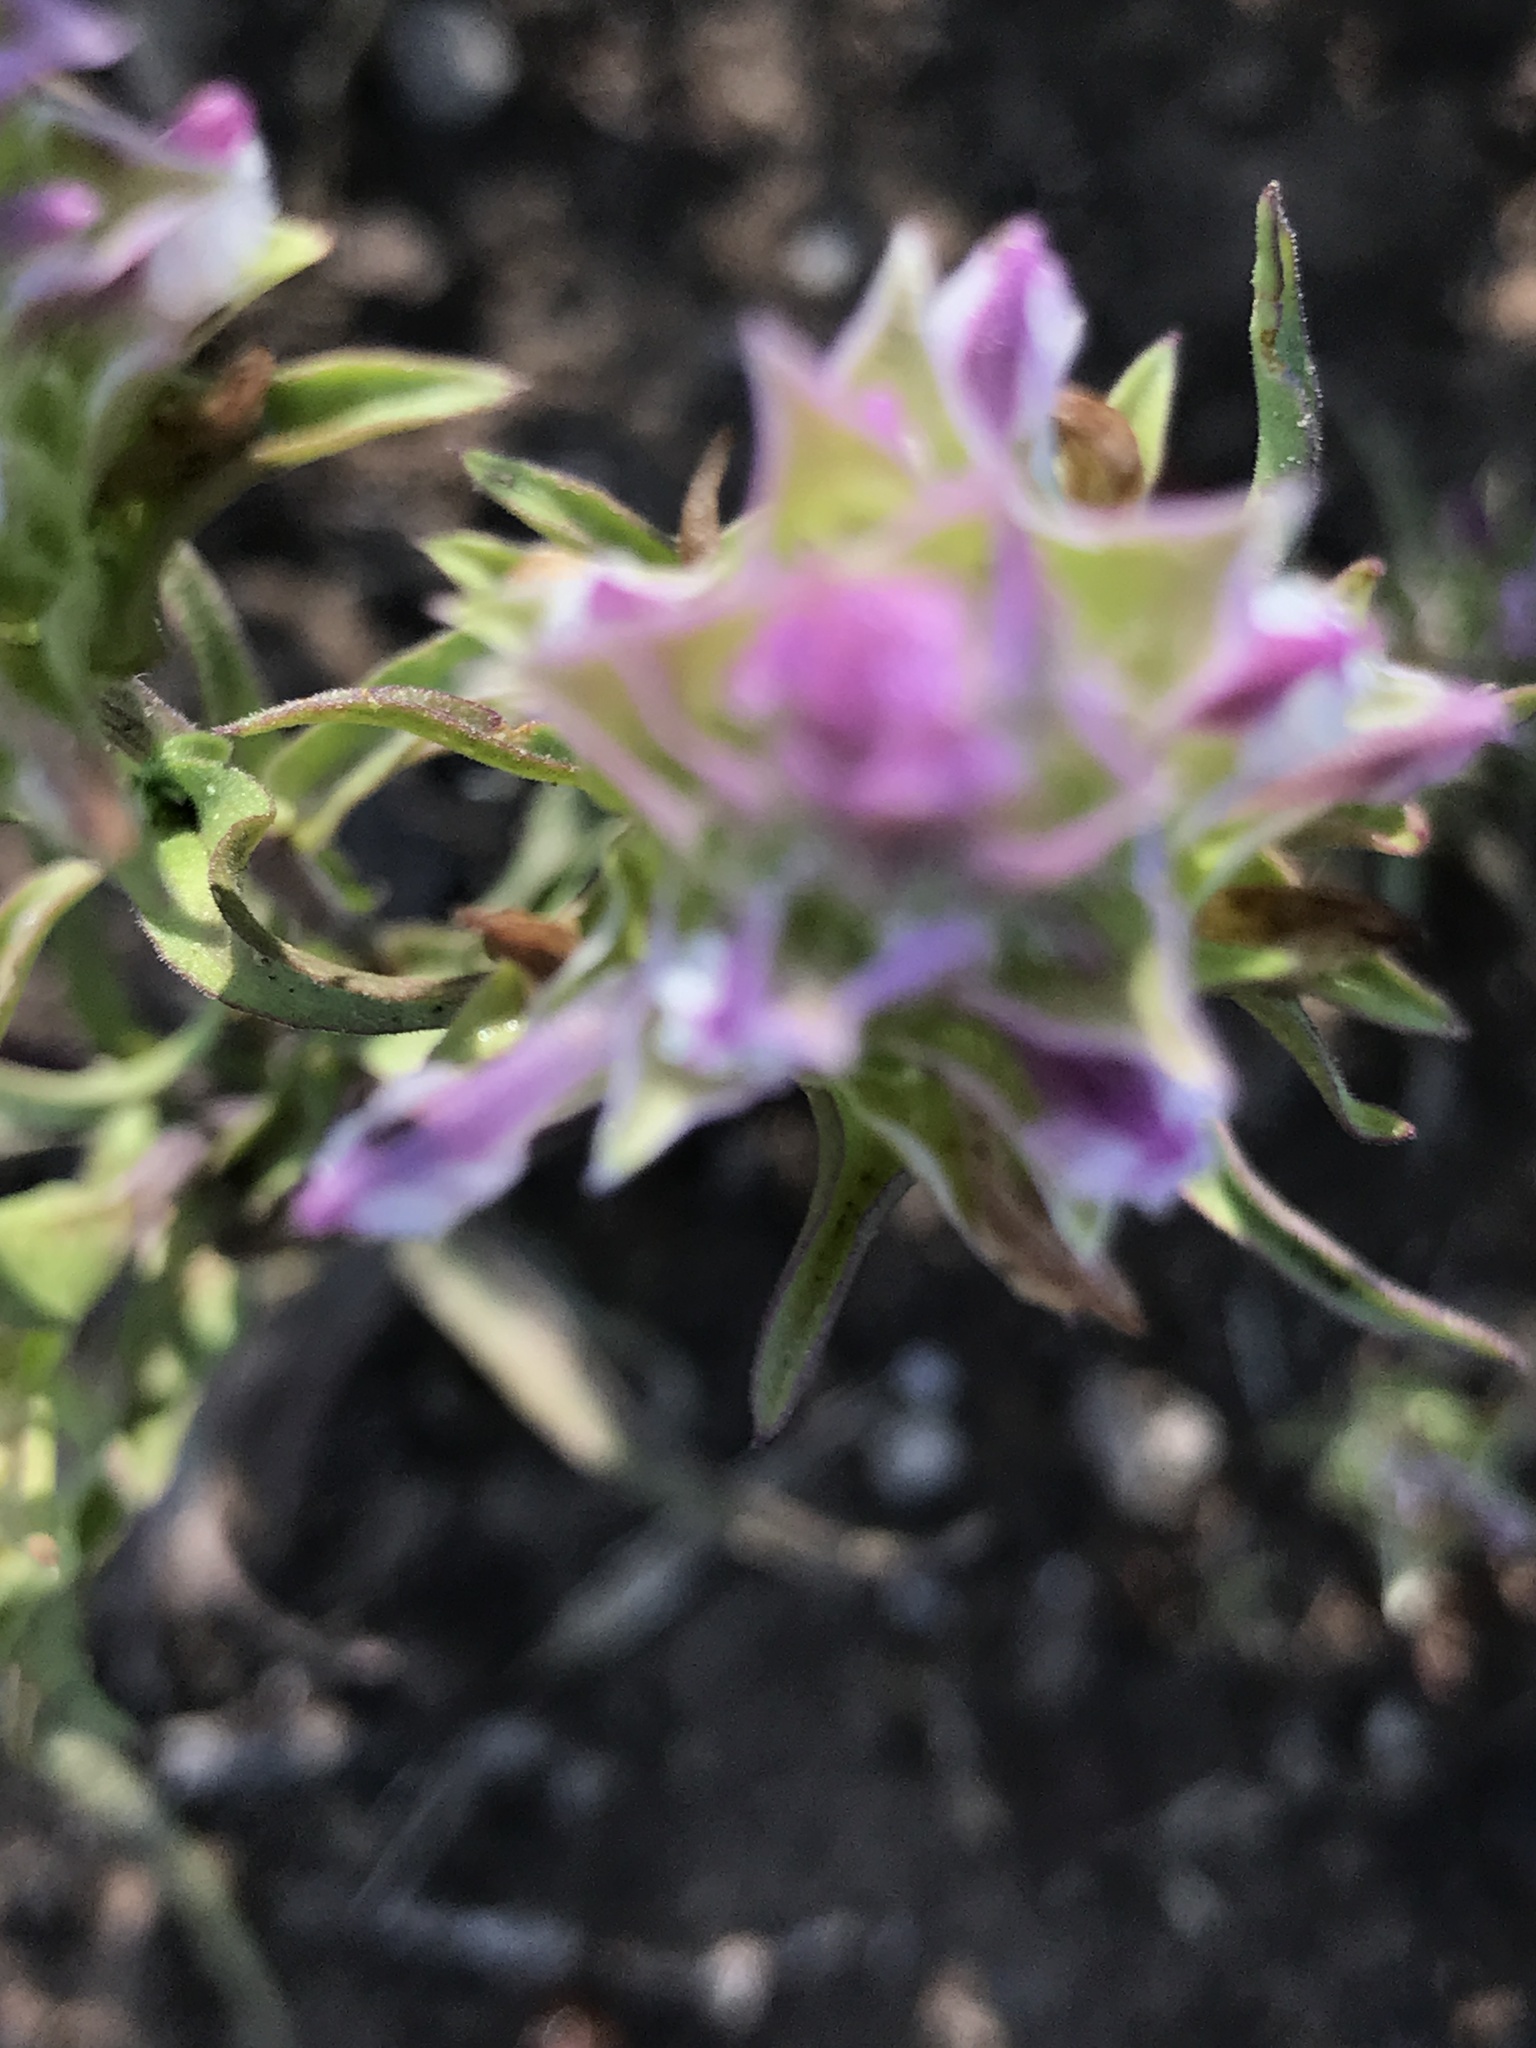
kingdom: Plantae
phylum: Tracheophyta
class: Magnoliopsida
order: Lamiales
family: Orobanchaceae
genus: Orthocarpus
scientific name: Orthocarpus cuspidatus
